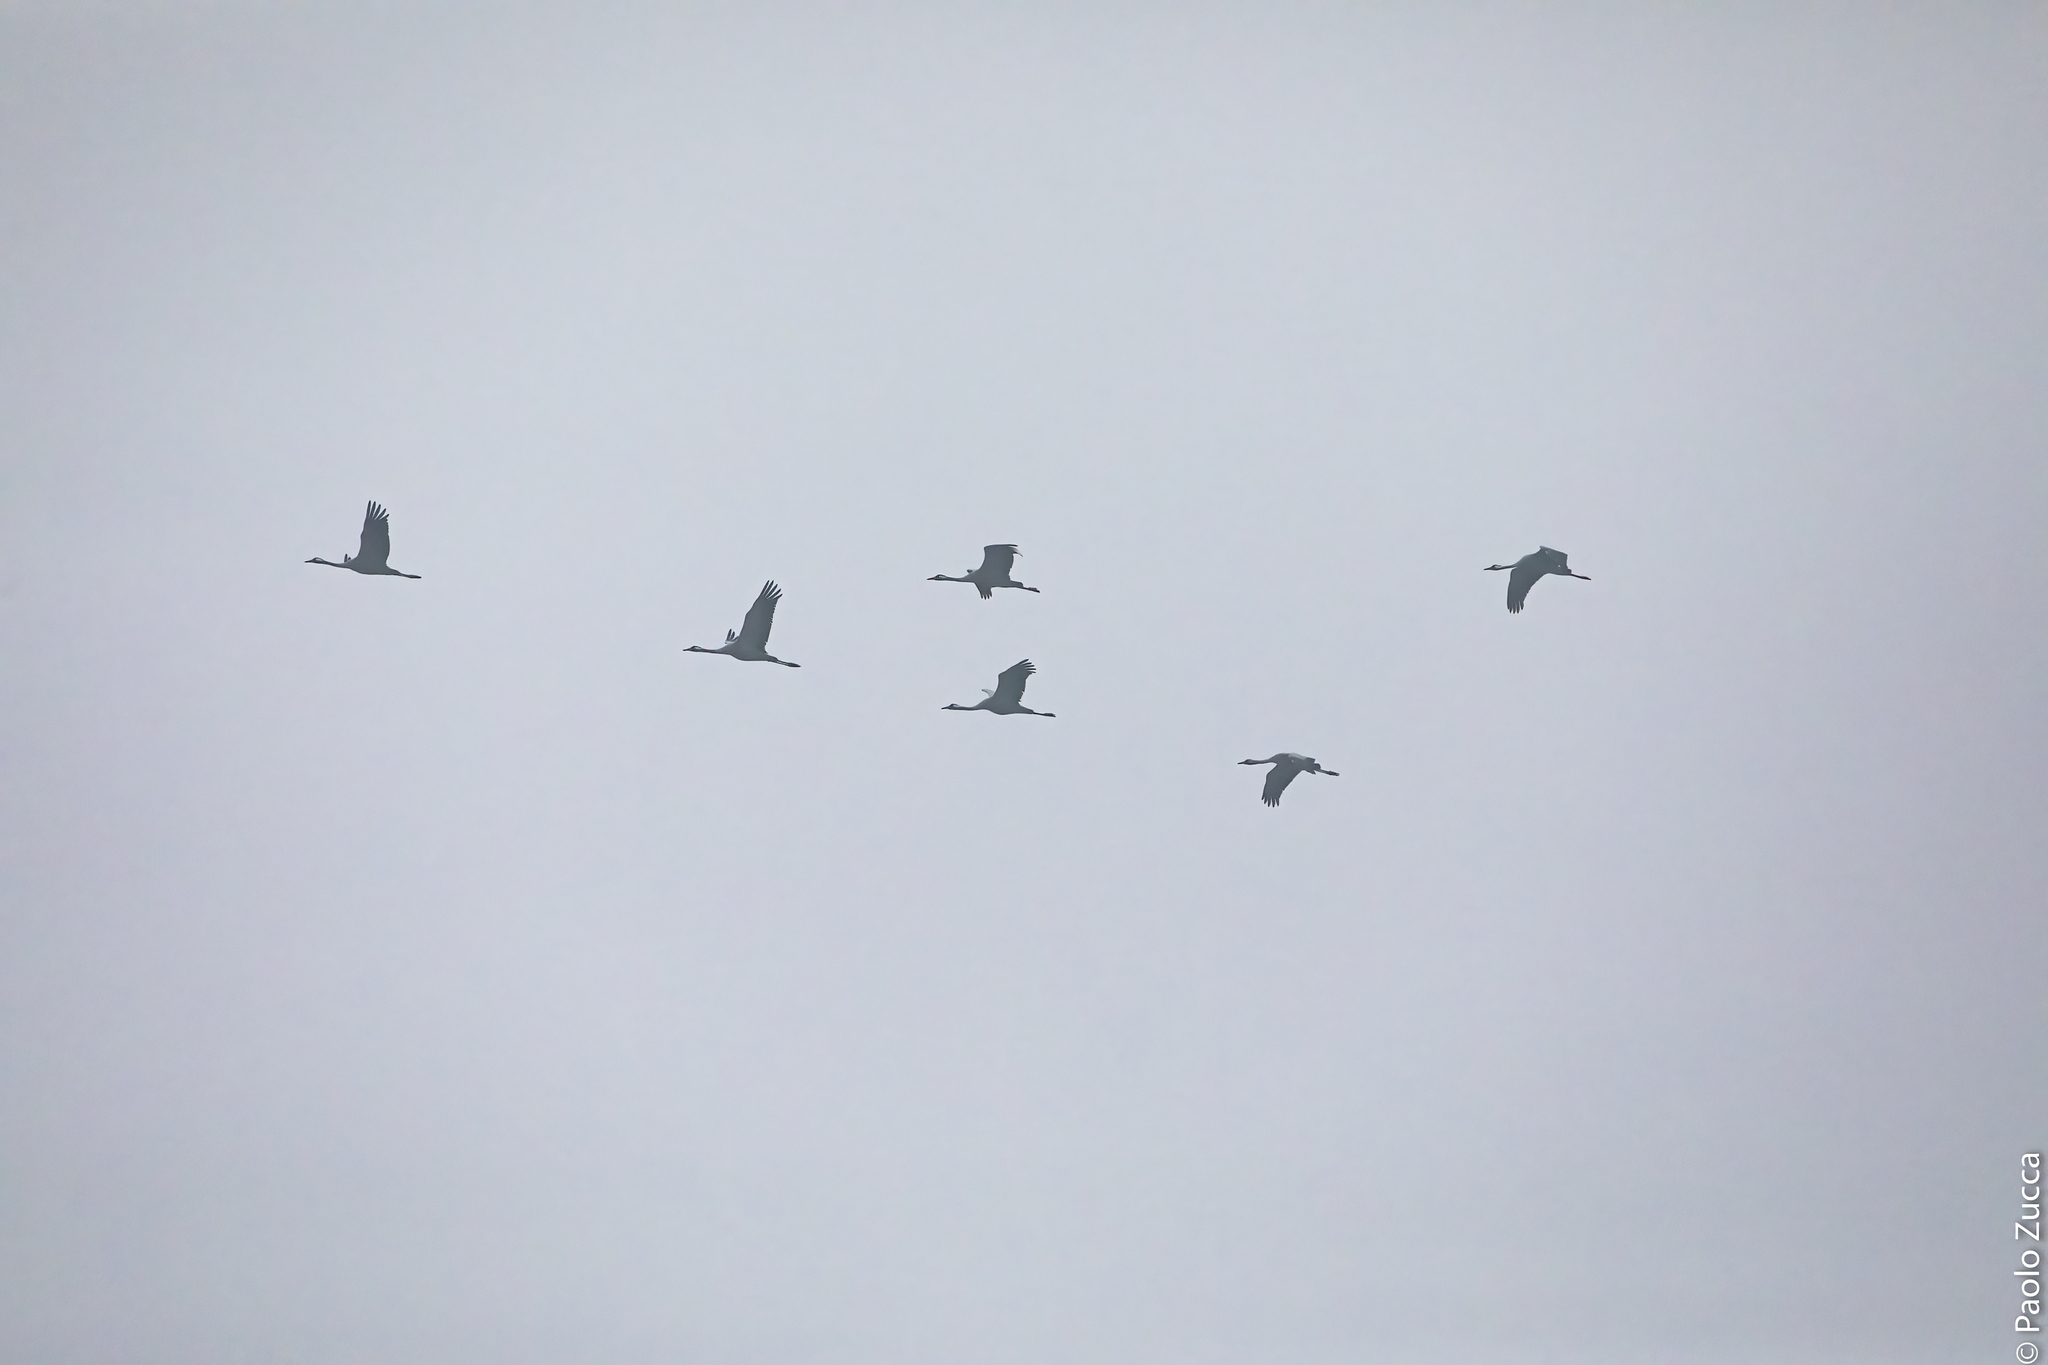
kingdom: Animalia
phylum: Chordata
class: Aves
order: Gruiformes
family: Gruidae
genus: Grus
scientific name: Grus grus
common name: Common crane
